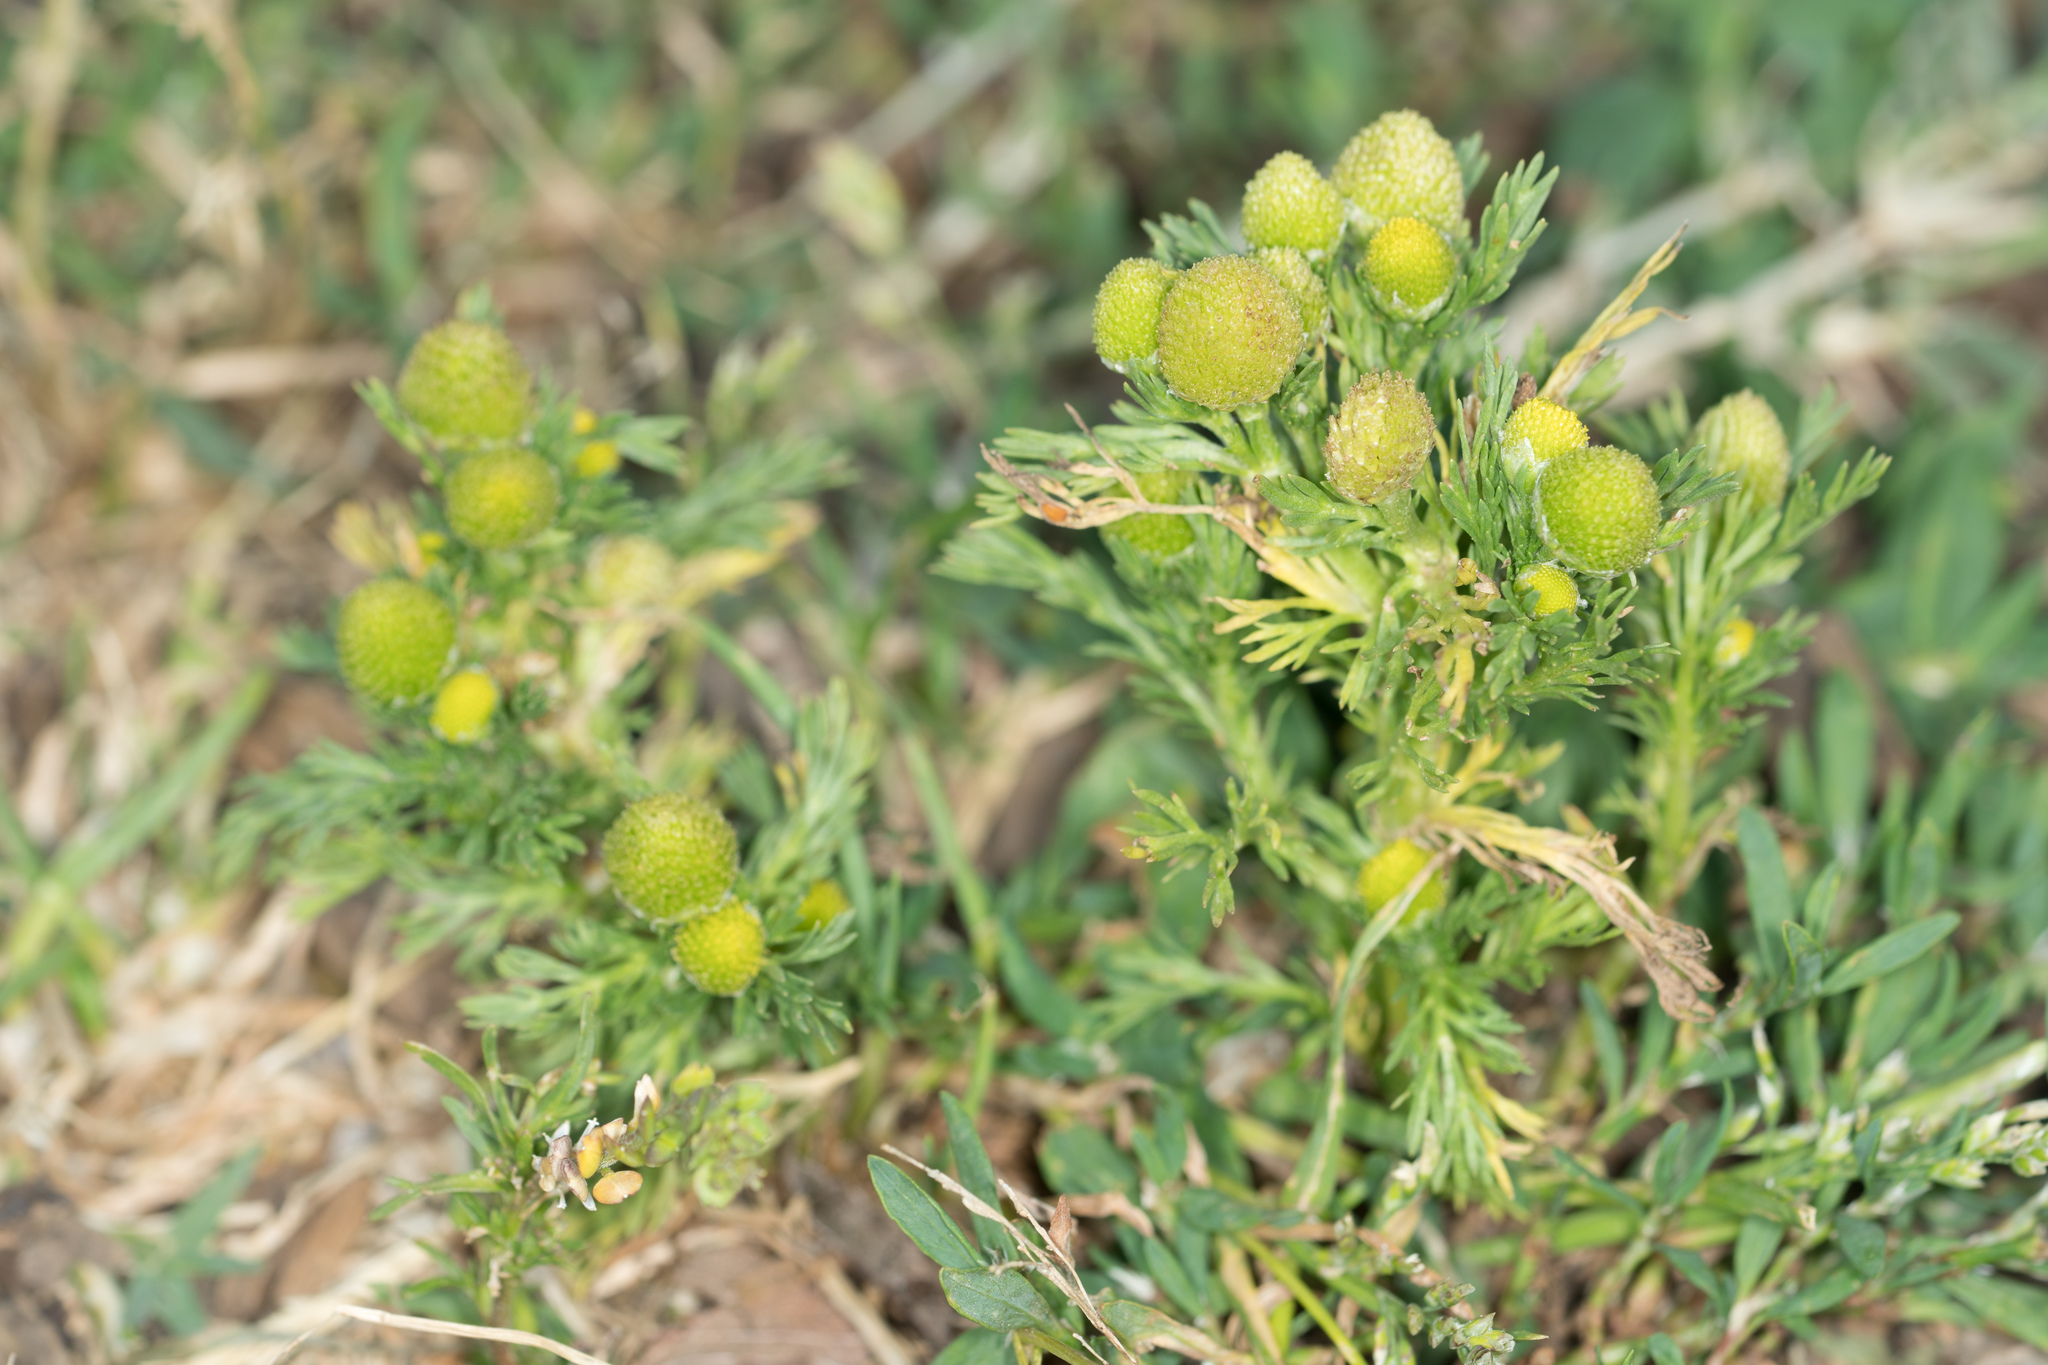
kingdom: Plantae
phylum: Tracheophyta
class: Magnoliopsida
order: Asterales
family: Asteraceae
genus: Matricaria
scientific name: Matricaria discoidea
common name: Disc mayweed
